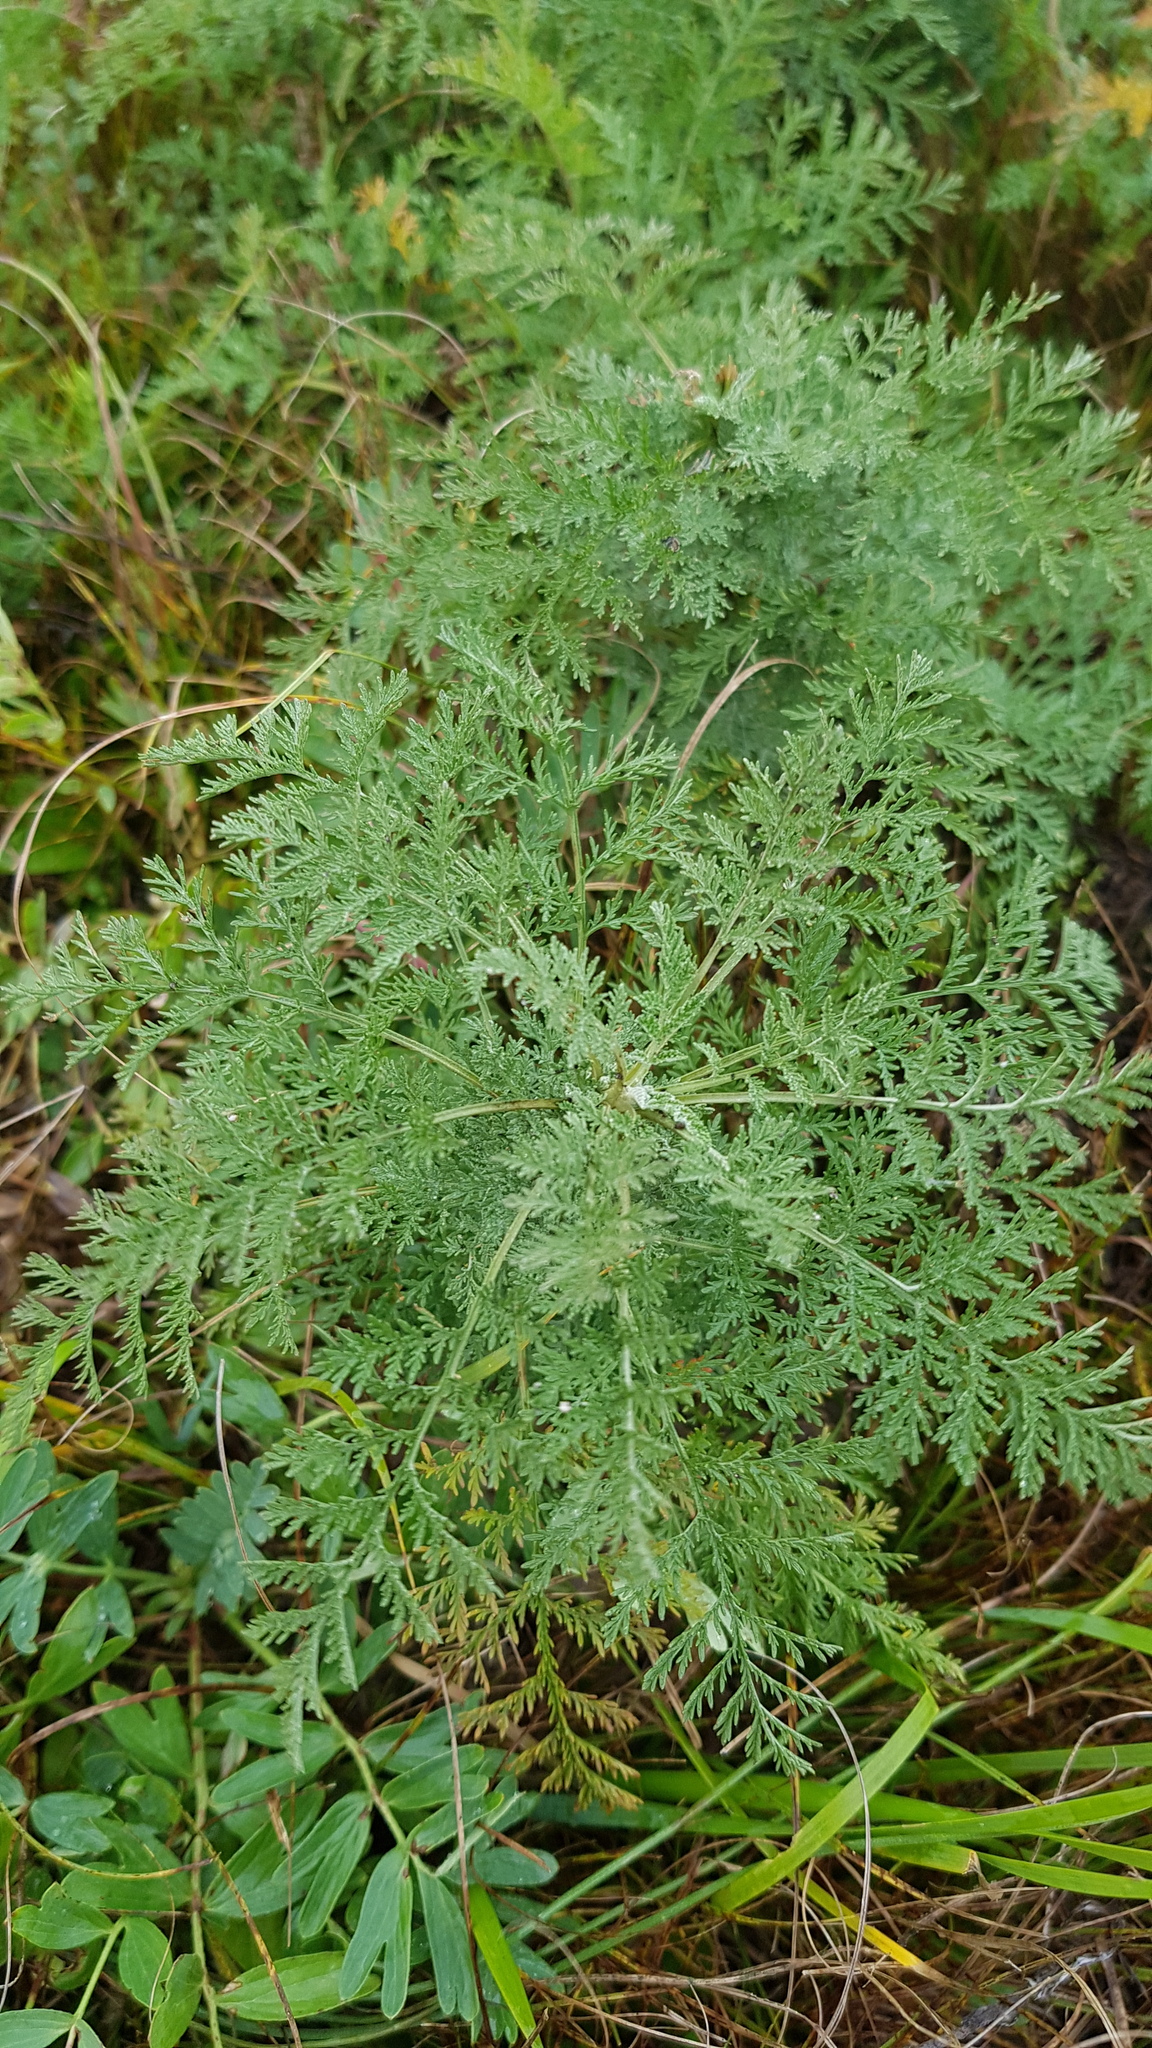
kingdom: Plantae
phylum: Tracheophyta
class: Magnoliopsida
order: Asterales
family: Asteraceae
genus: Artemisia
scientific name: Artemisia gmelinii
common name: Gmelin's wormwood
